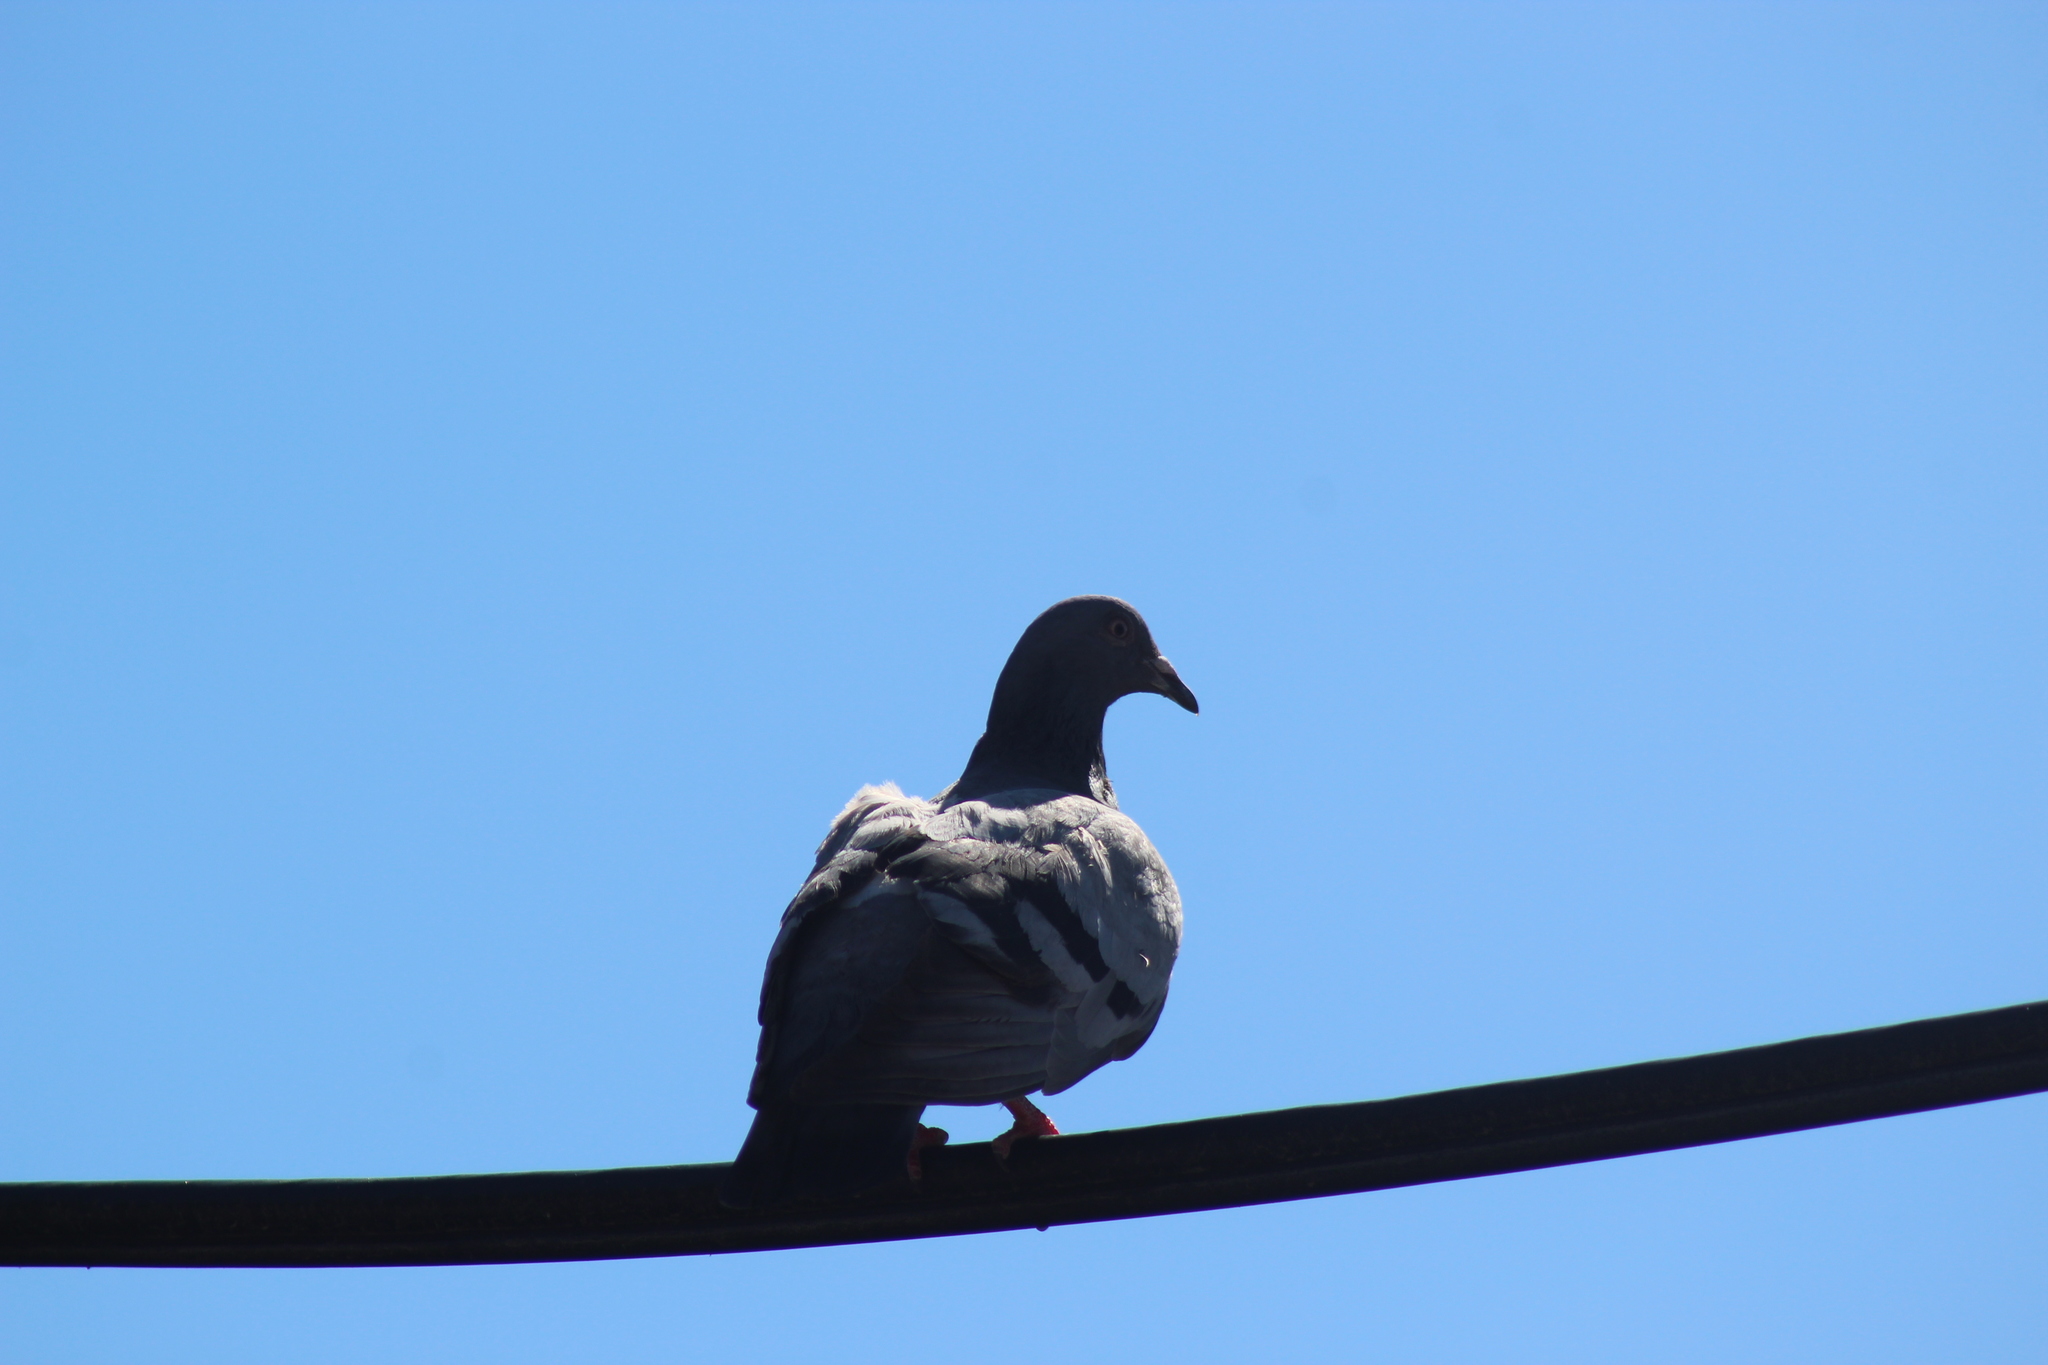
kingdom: Animalia
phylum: Chordata
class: Aves
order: Columbiformes
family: Columbidae
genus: Columba
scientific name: Columba livia
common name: Rock pigeon
